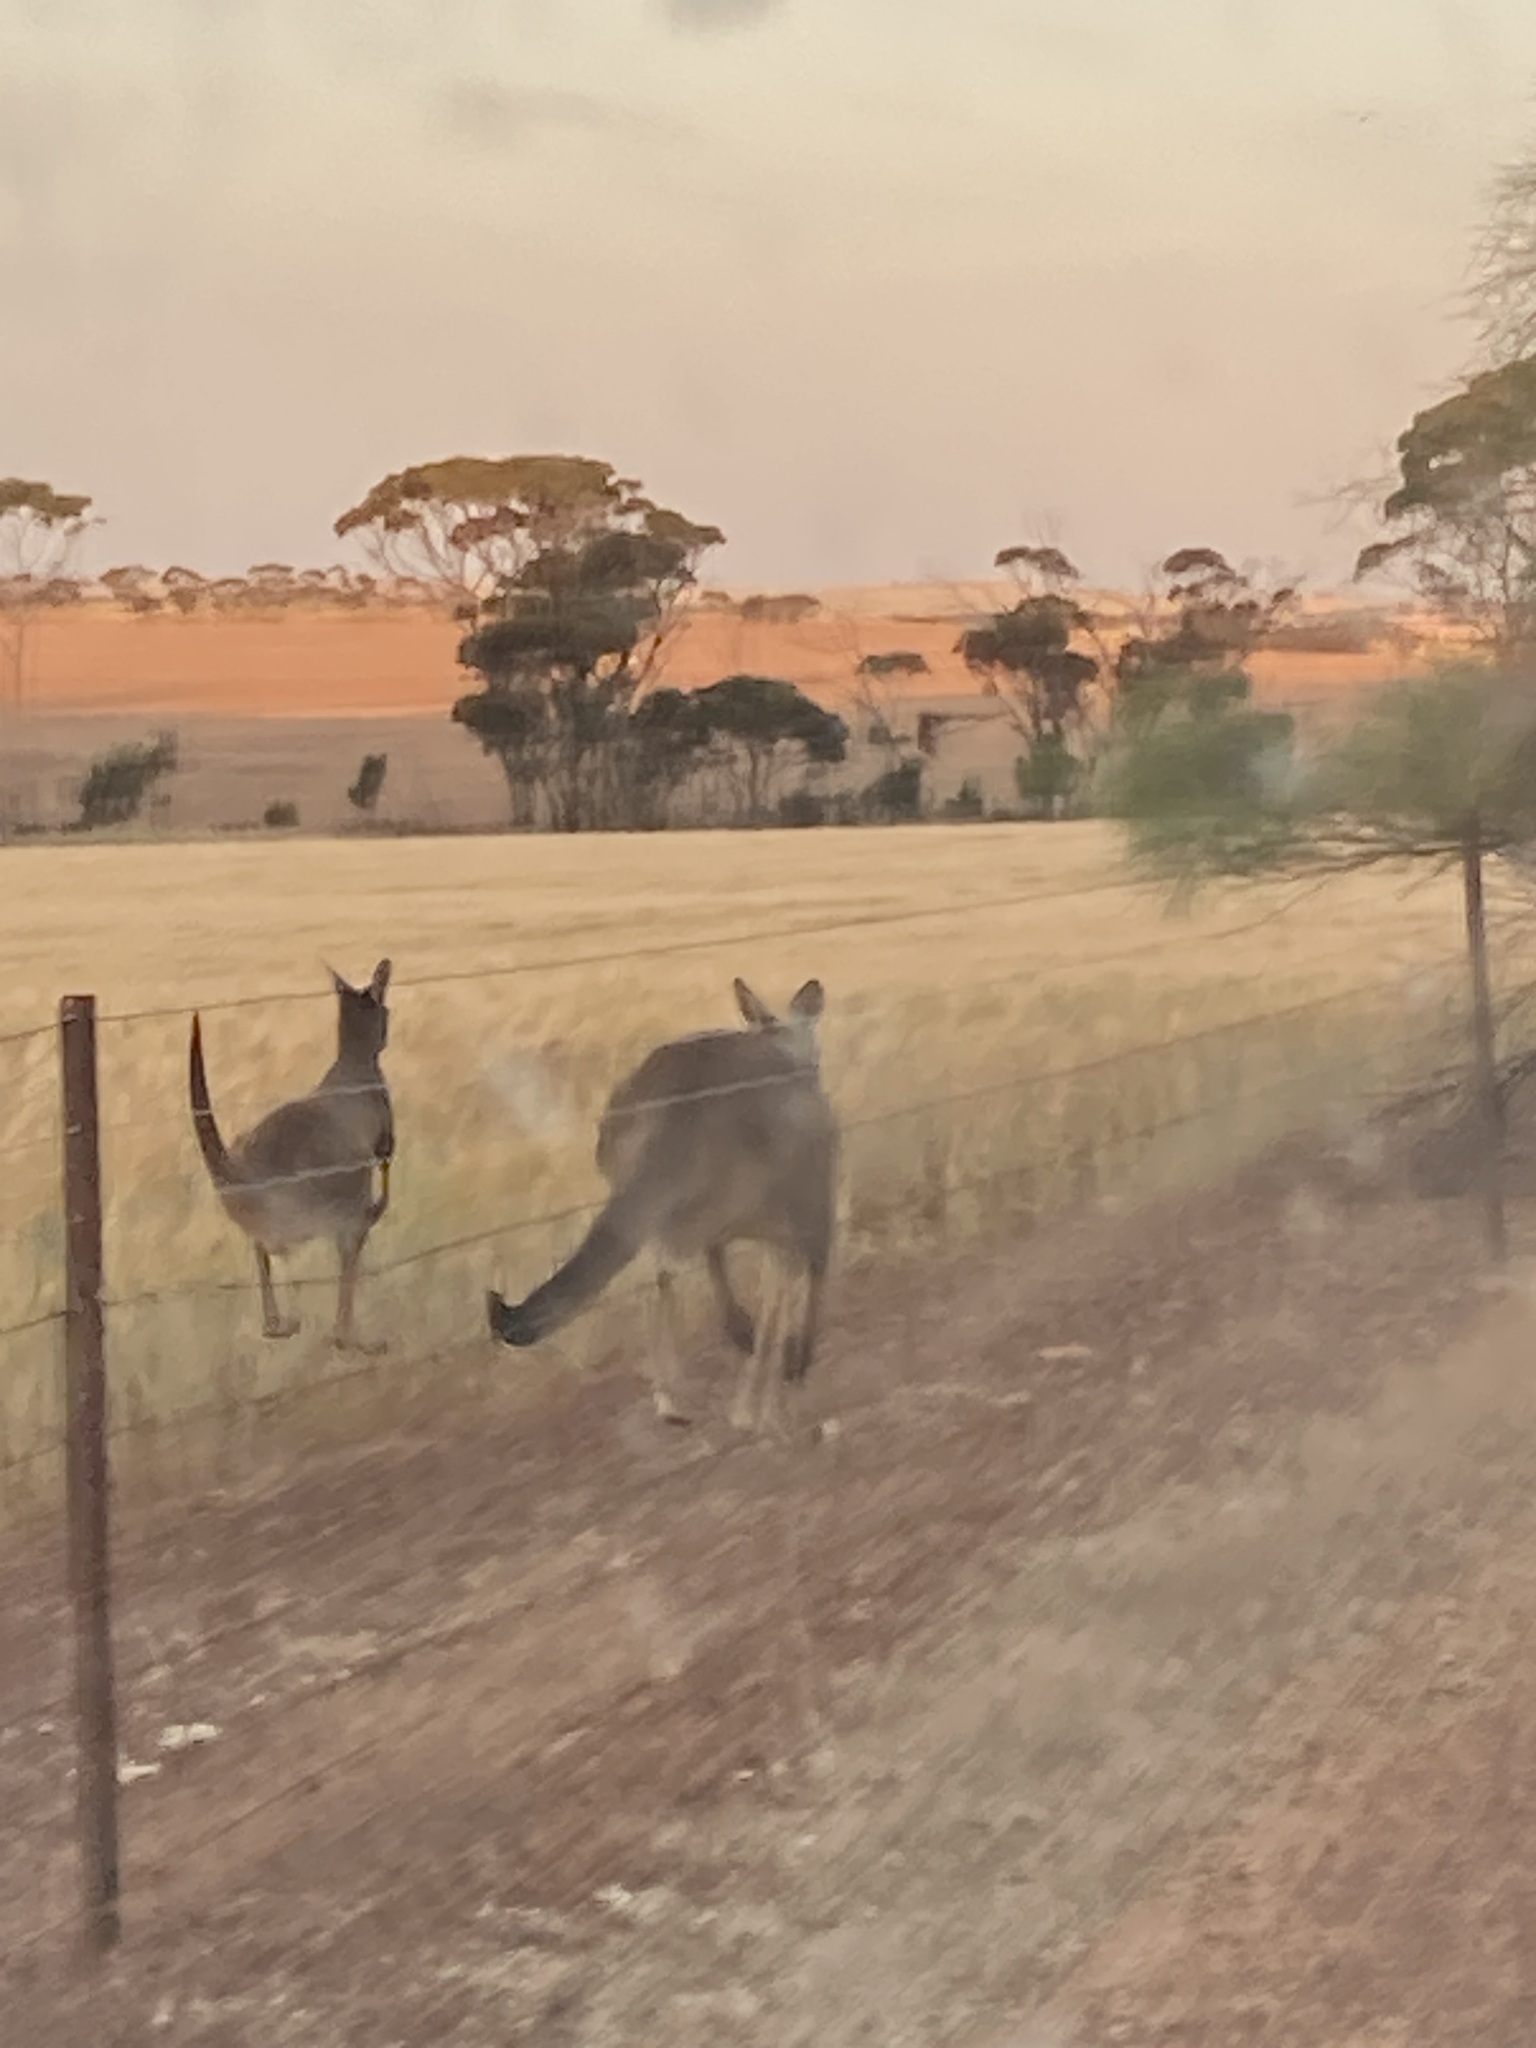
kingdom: Animalia
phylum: Chordata
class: Mammalia
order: Diprotodontia
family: Macropodidae
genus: Macropus
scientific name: Macropus fuliginosus
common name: Western grey kangaroo
